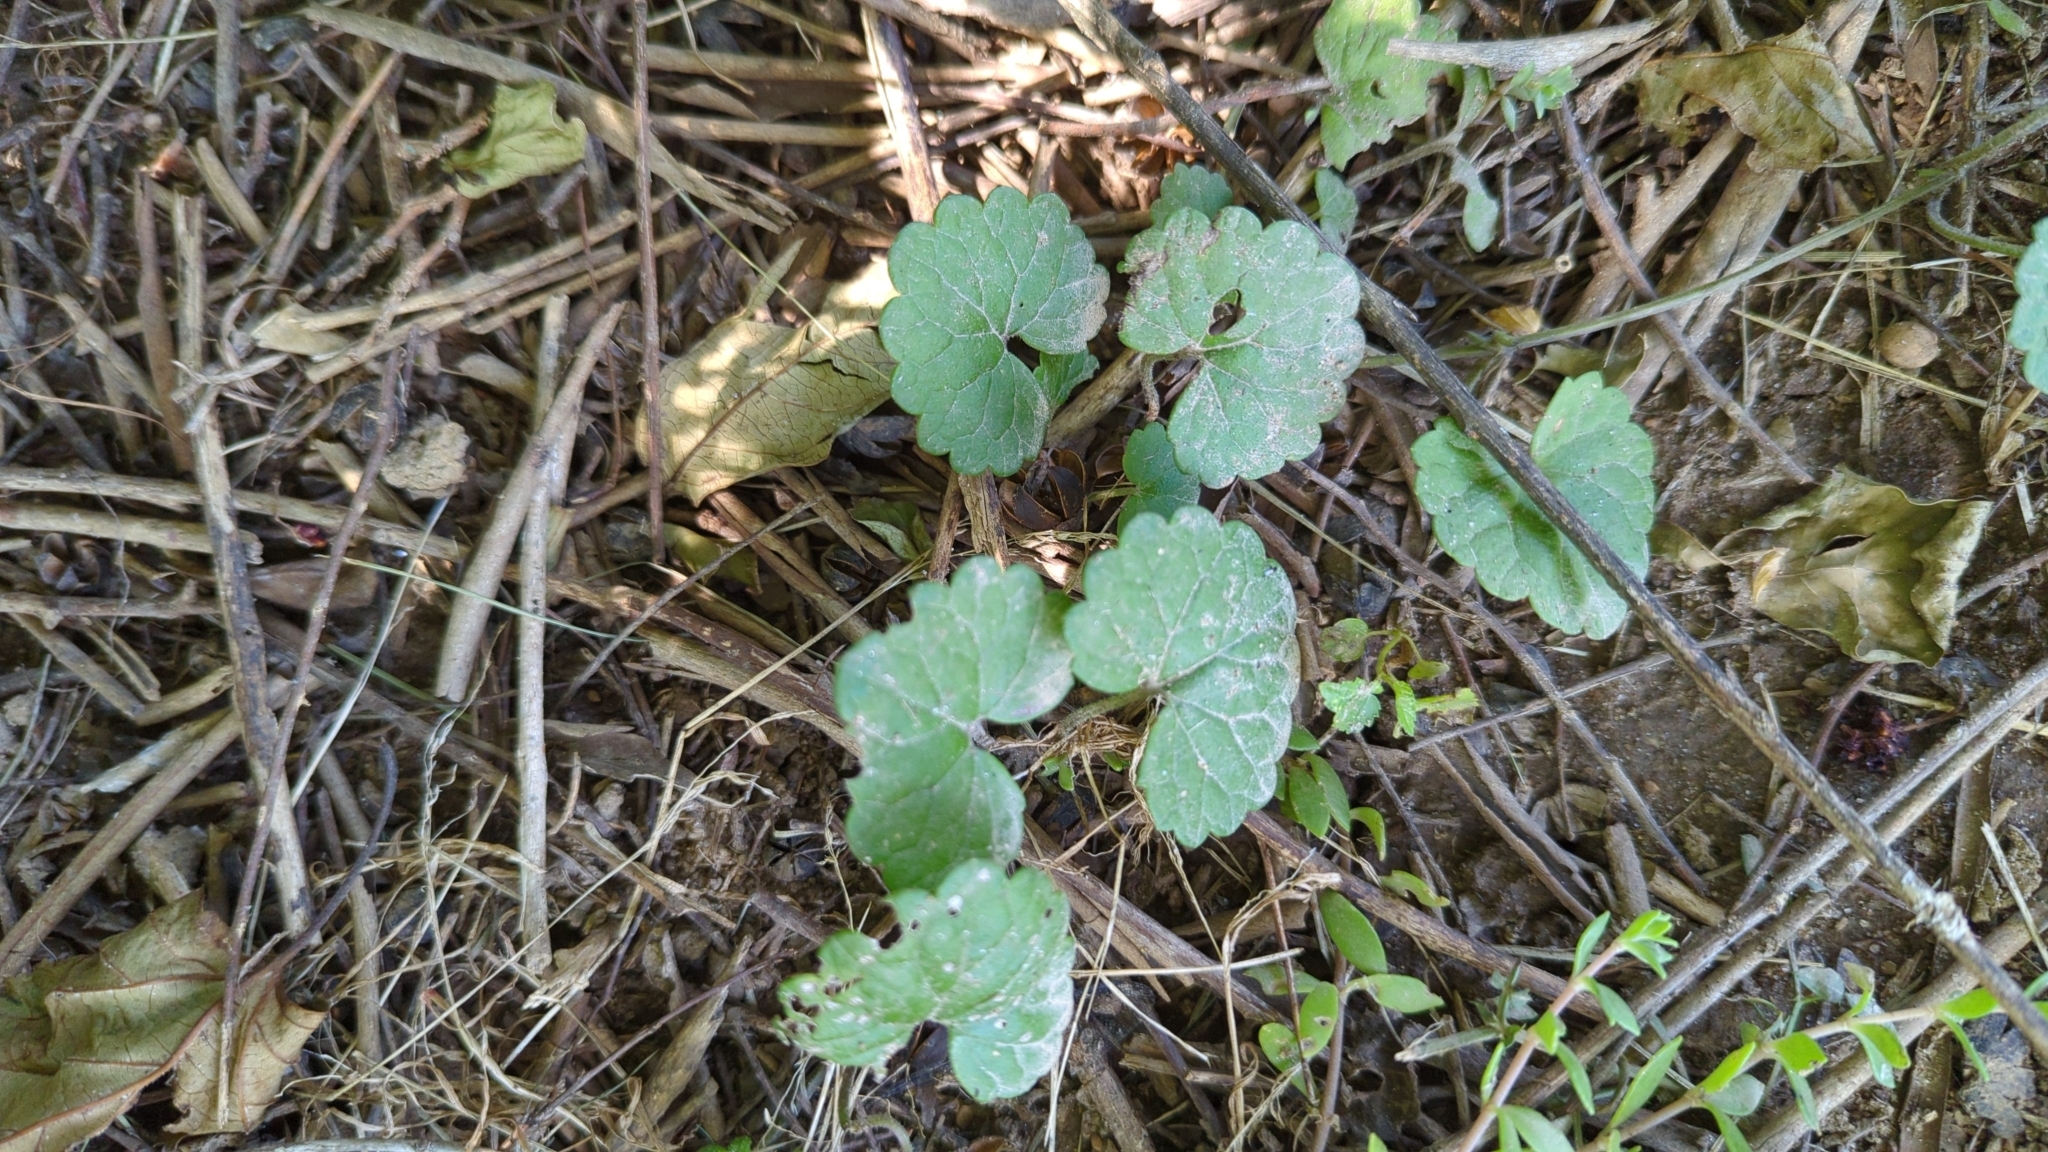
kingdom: Plantae
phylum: Tracheophyta
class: Magnoliopsida
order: Lamiales
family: Lamiaceae
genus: Glechoma
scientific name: Glechoma hederacea
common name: Ground ivy
